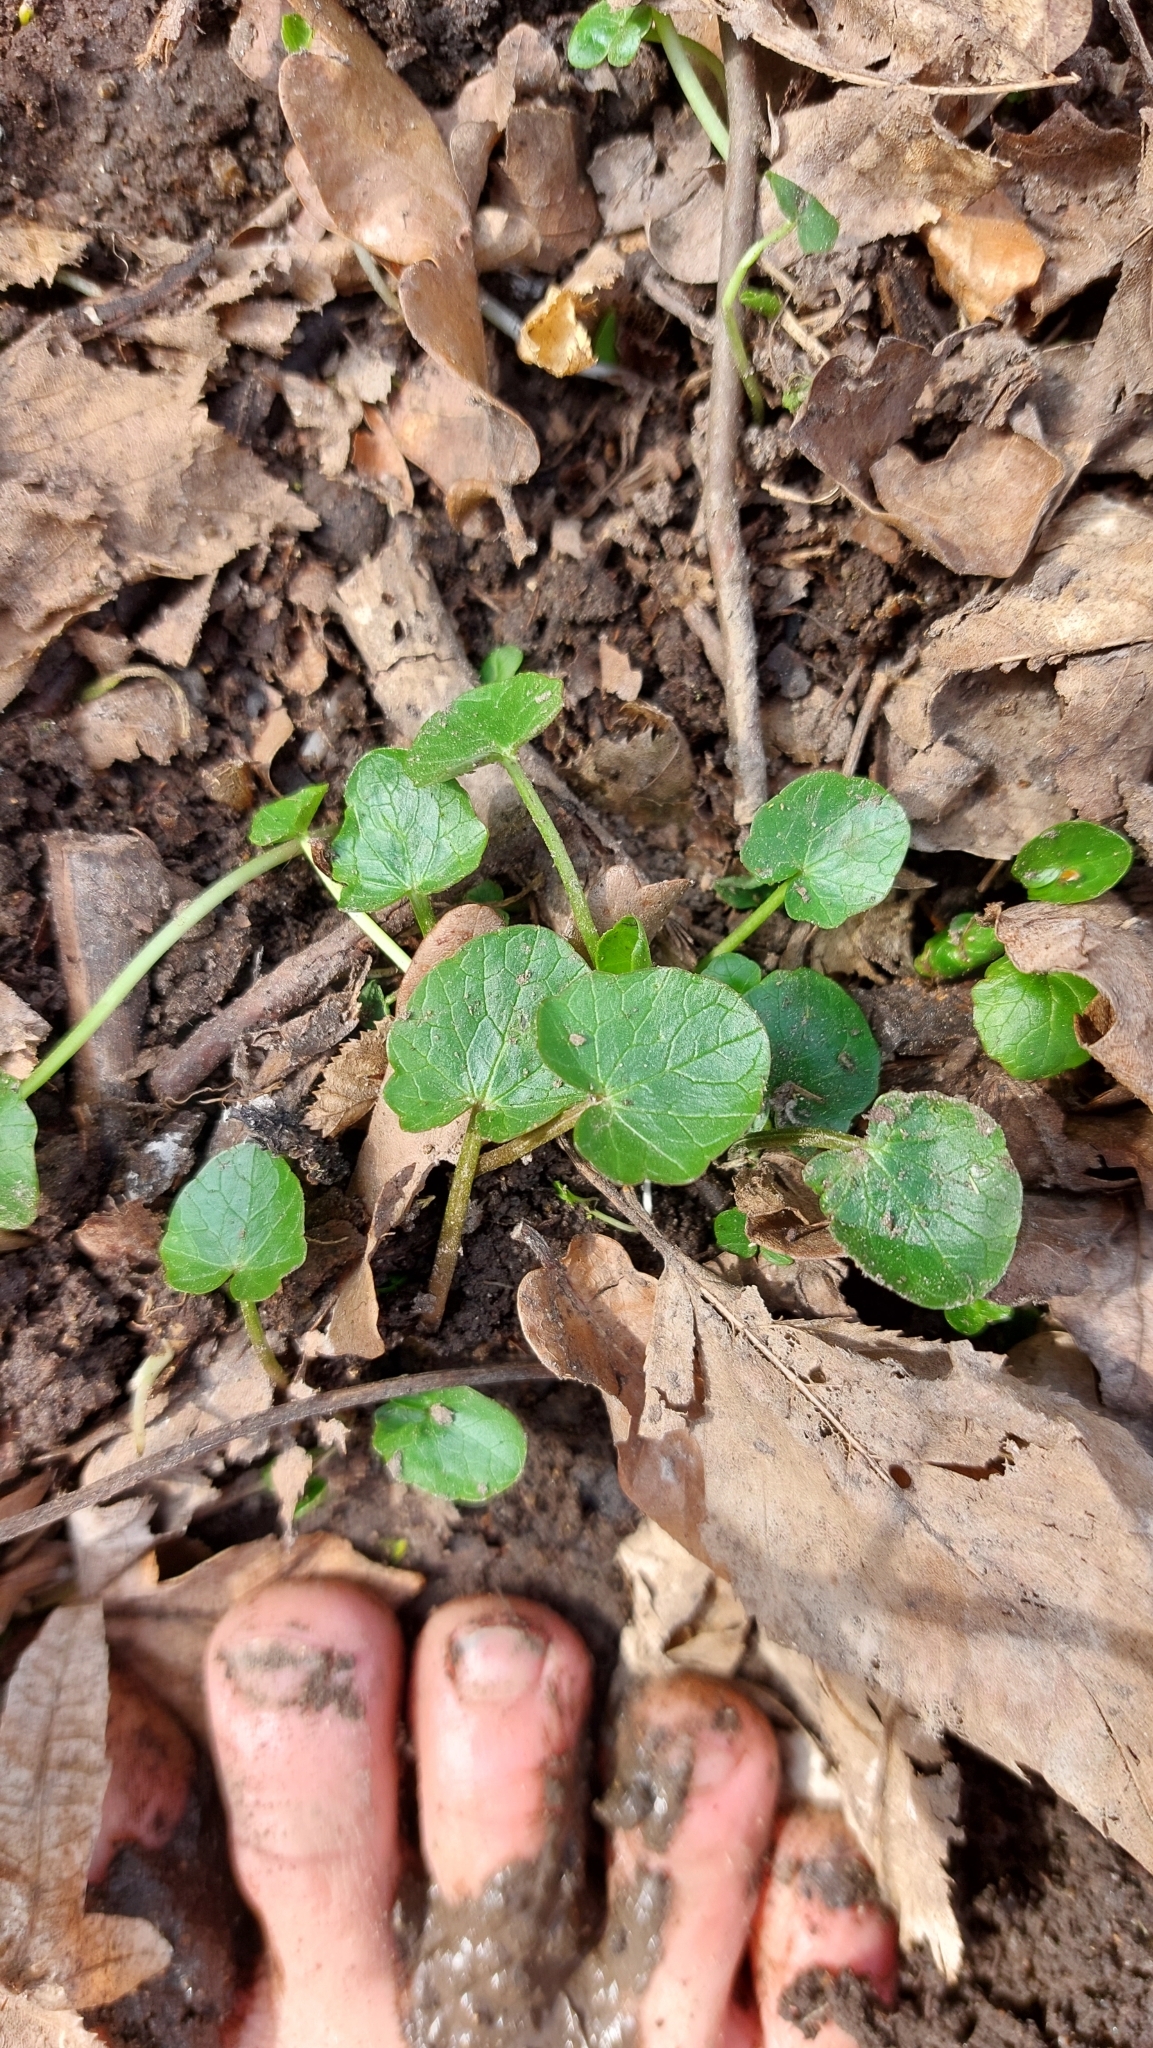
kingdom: Plantae
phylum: Tracheophyta
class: Magnoliopsida
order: Ranunculales
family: Ranunculaceae
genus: Ficaria
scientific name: Ficaria verna
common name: Lesser celandine
